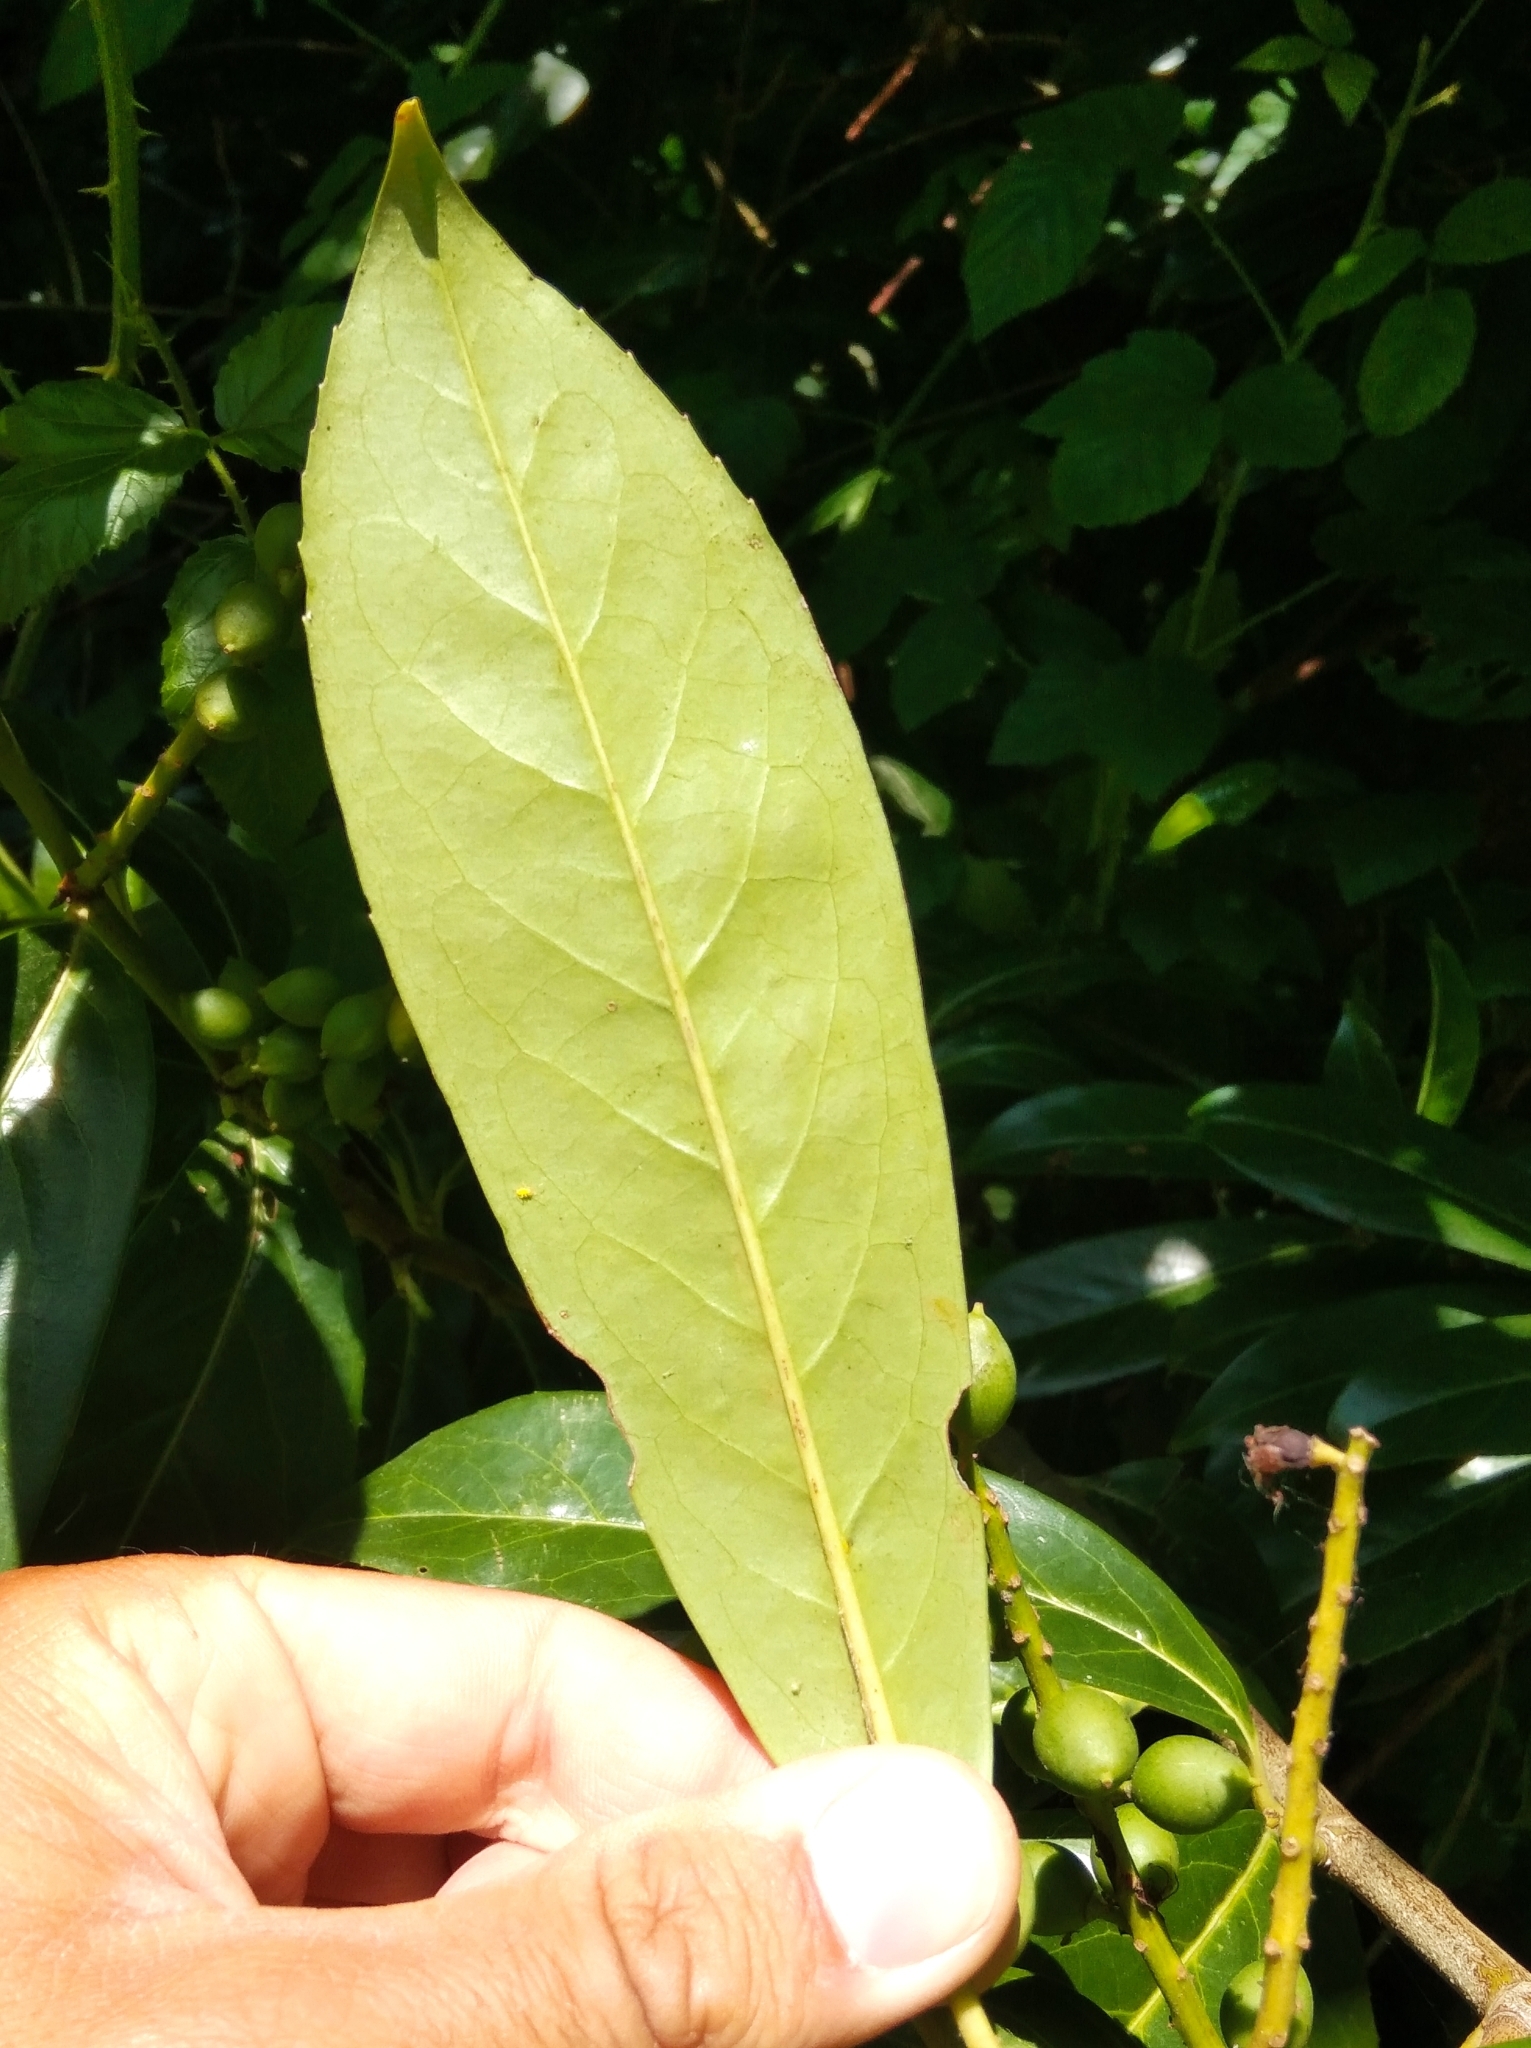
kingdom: Plantae
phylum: Tracheophyta
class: Magnoliopsida
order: Rosales
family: Rosaceae
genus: Prunus
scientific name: Prunus laurocerasus
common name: Cherry laurel
